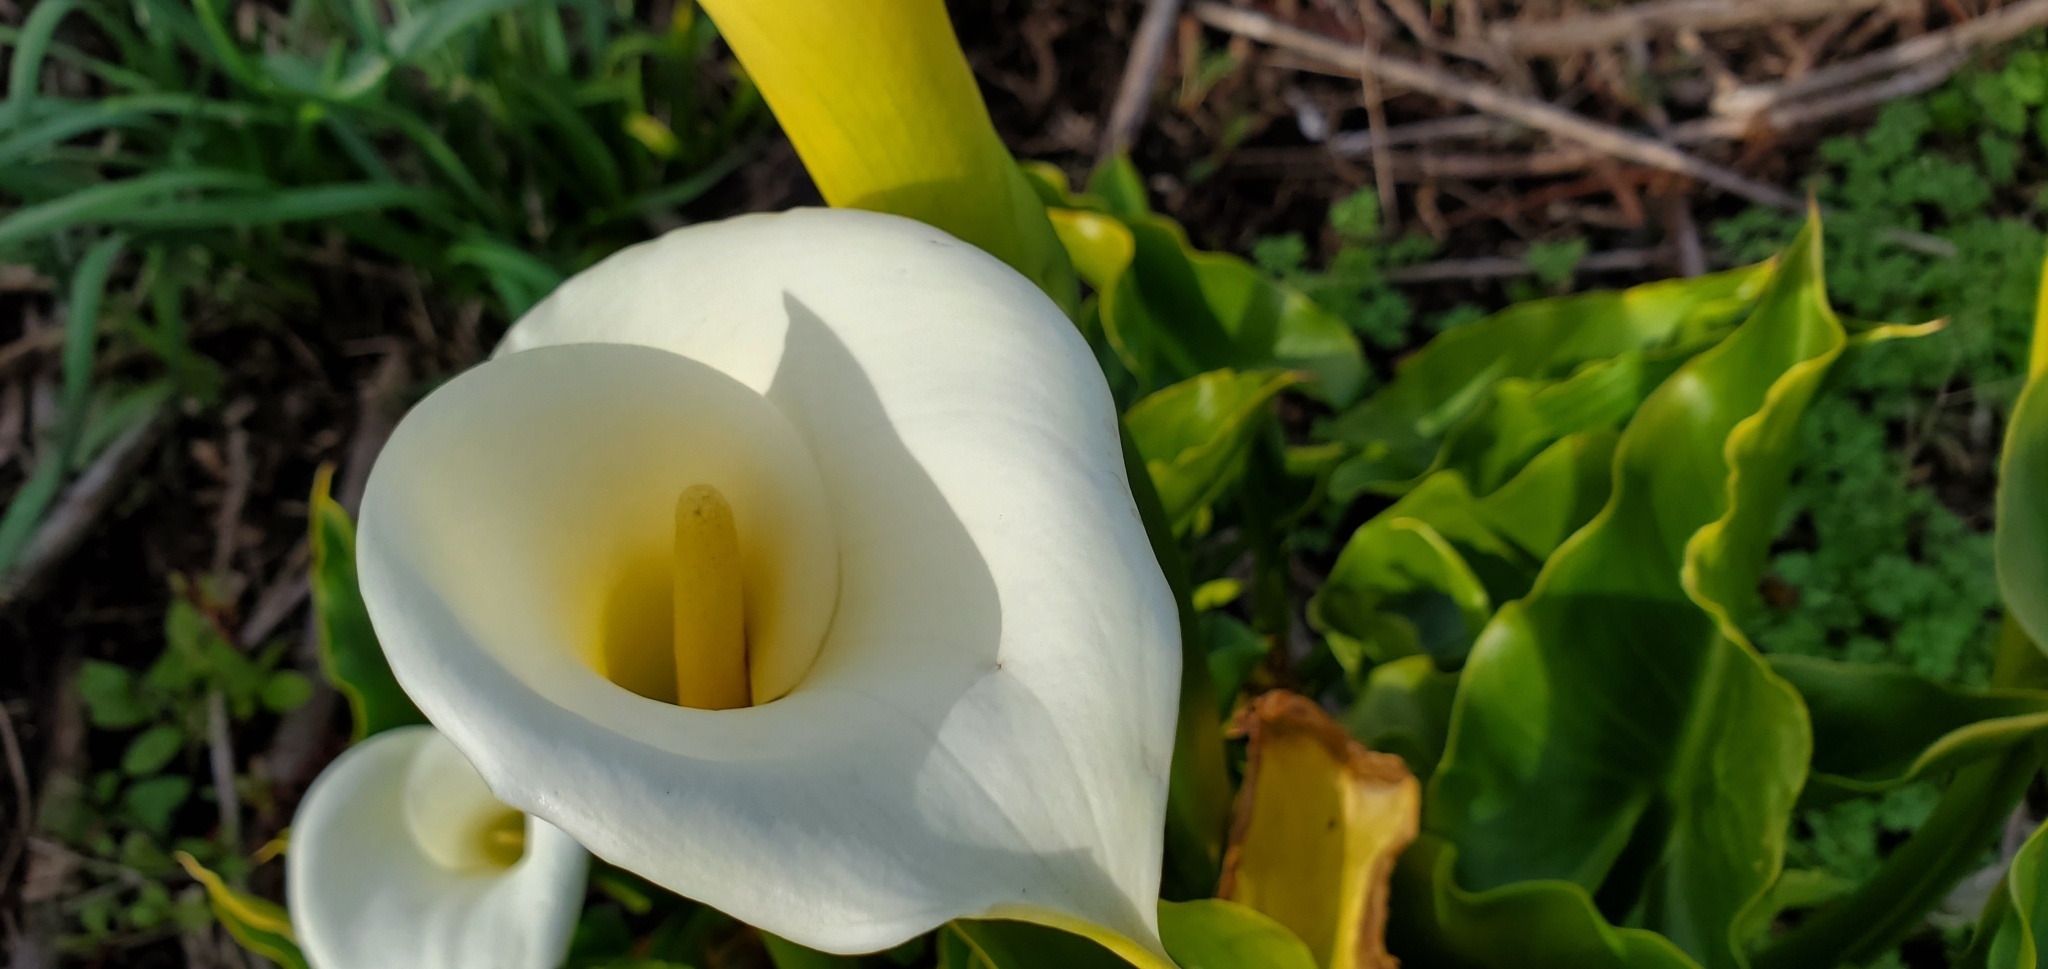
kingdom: Plantae
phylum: Tracheophyta
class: Liliopsida
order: Alismatales
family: Araceae
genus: Zantedeschia
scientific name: Zantedeschia aethiopica
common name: Altar-lily
